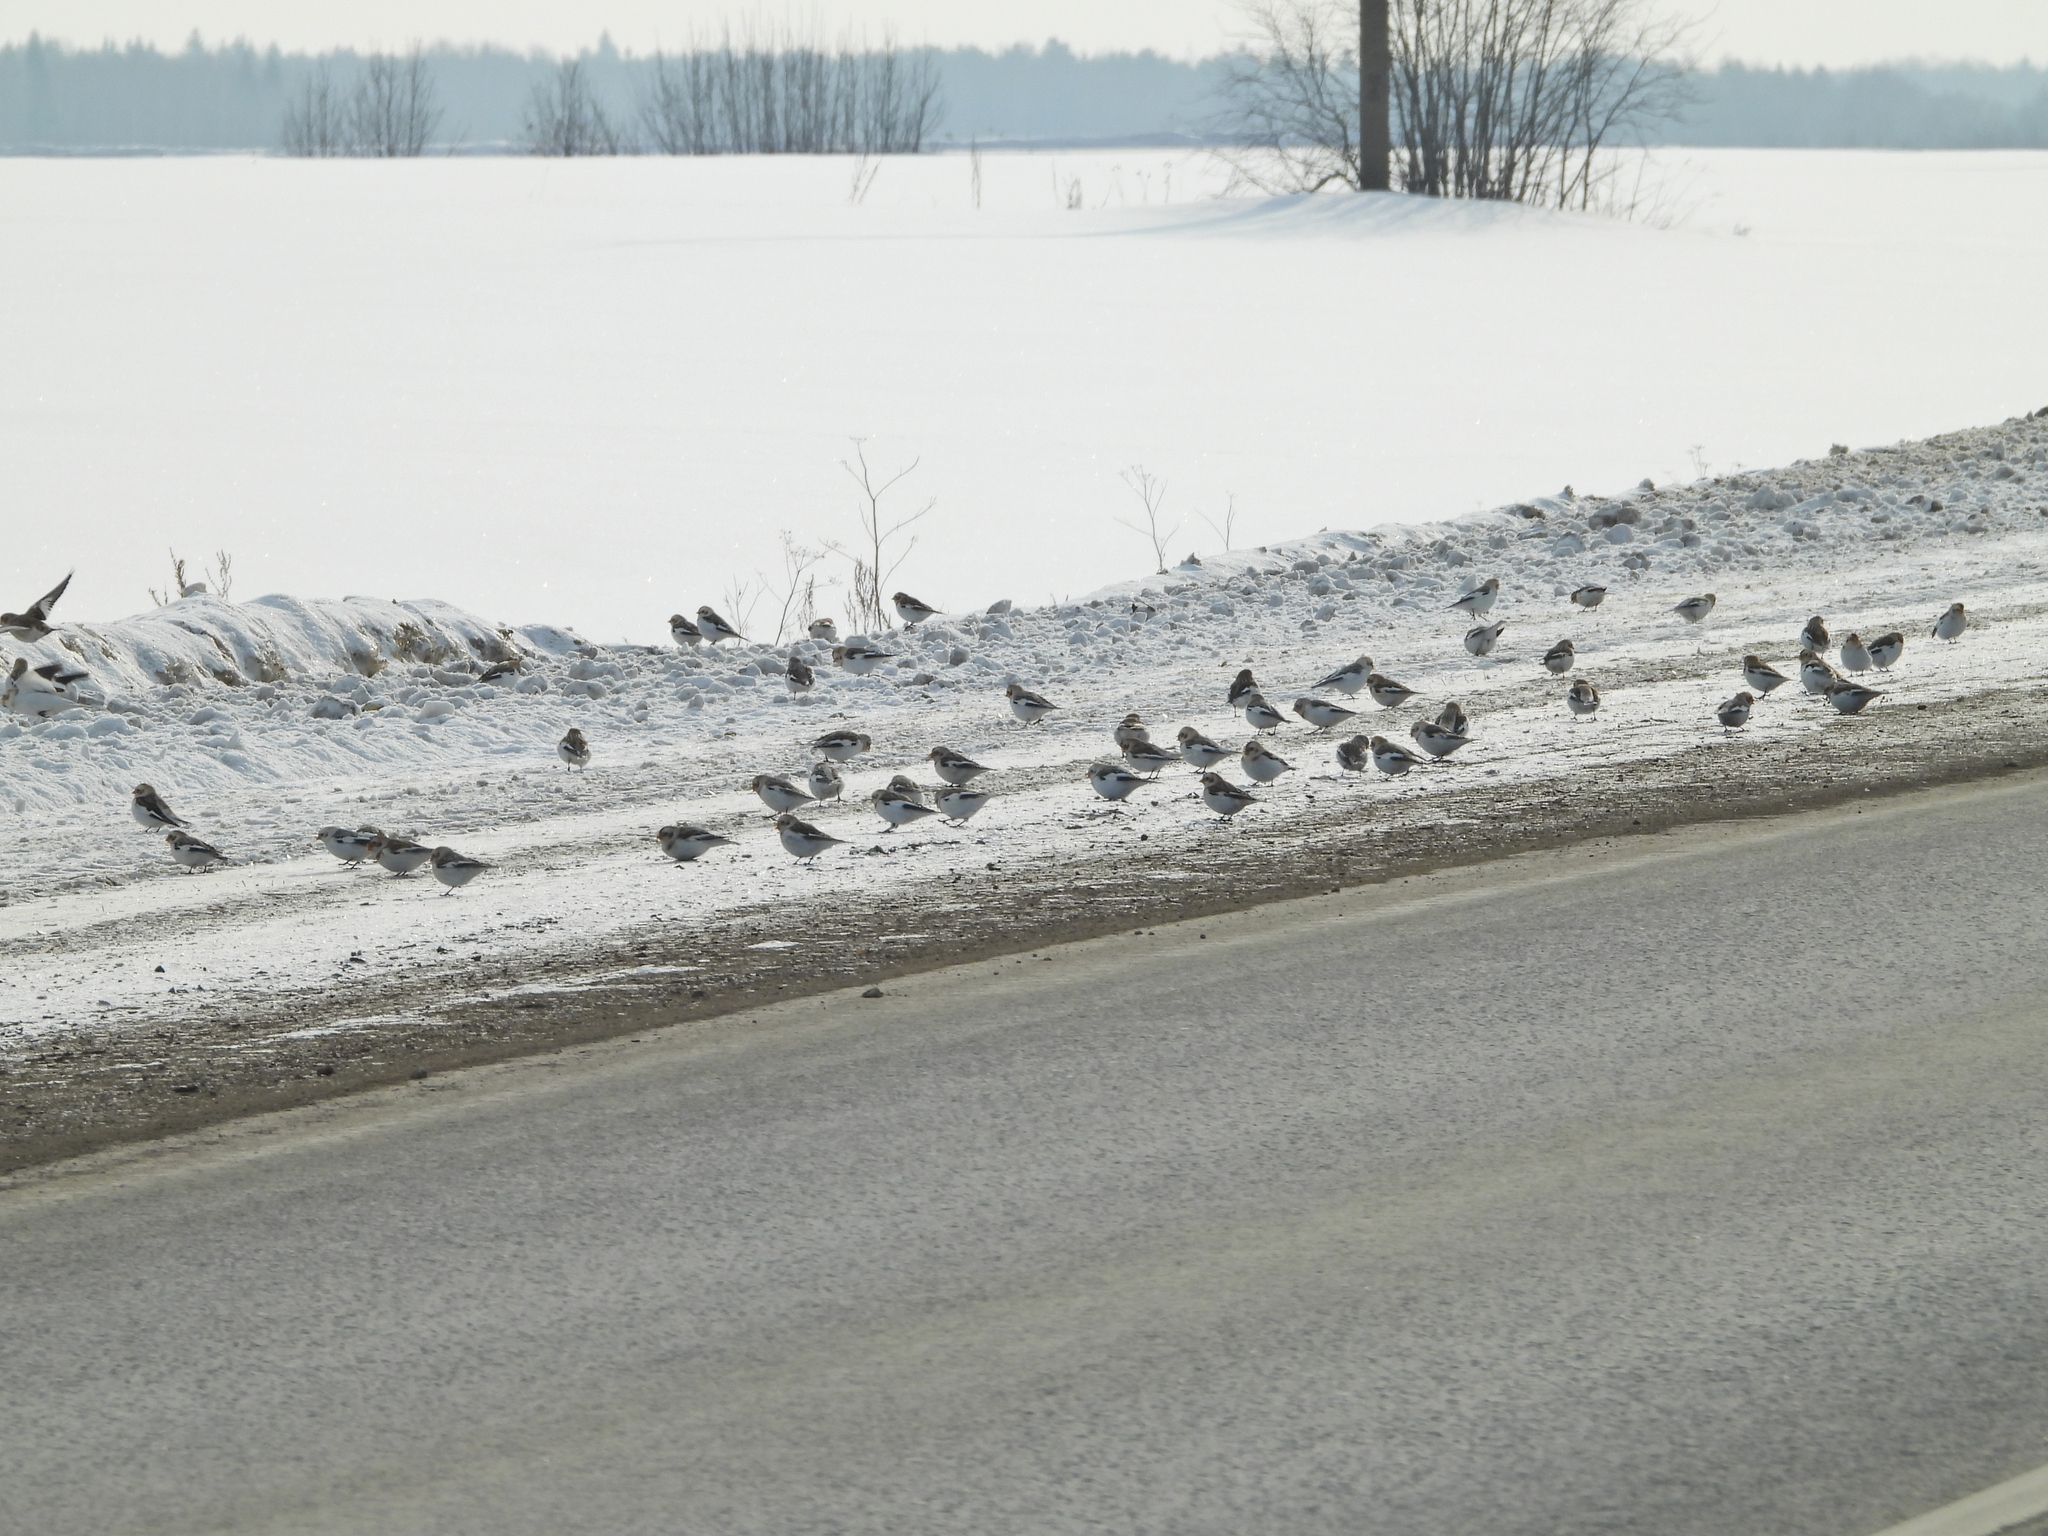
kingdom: Animalia
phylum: Chordata
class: Aves
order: Passeriformes
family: Calcariidae
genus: Plectrophenax
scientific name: Plectrophenax nivalis
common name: Snow bunting
